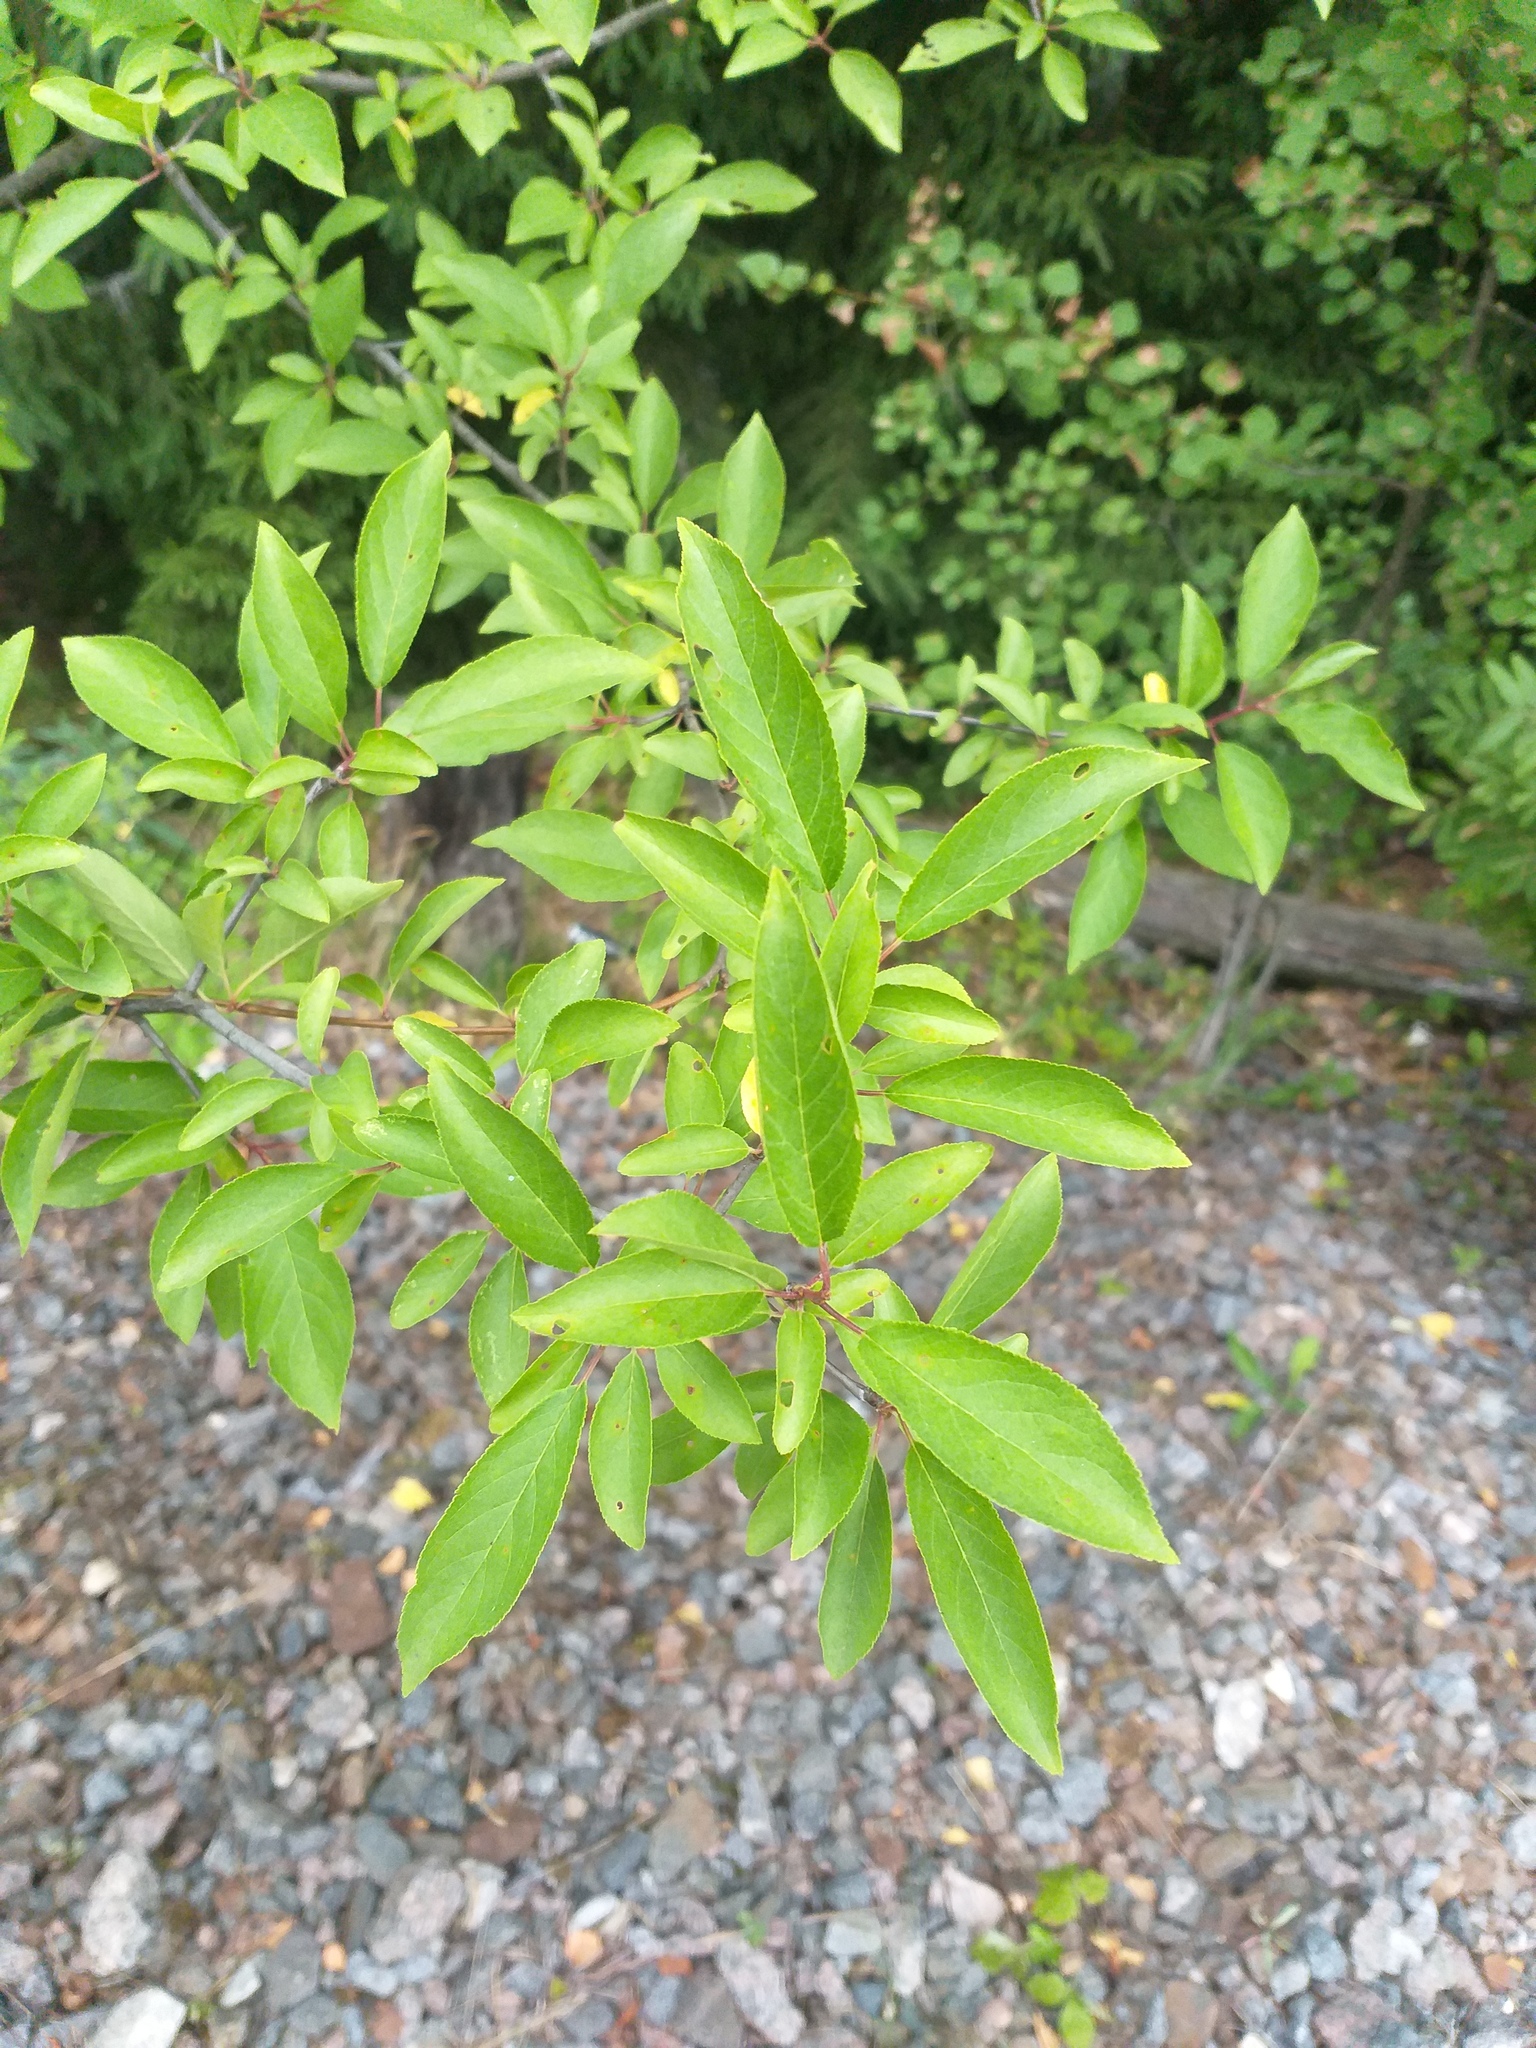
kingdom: Plantae
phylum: Tracheophyta
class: Magnoliopsida
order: Rosales
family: Rosaceae
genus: Prunus
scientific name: Prunus cerasifera
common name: Cherry plum
